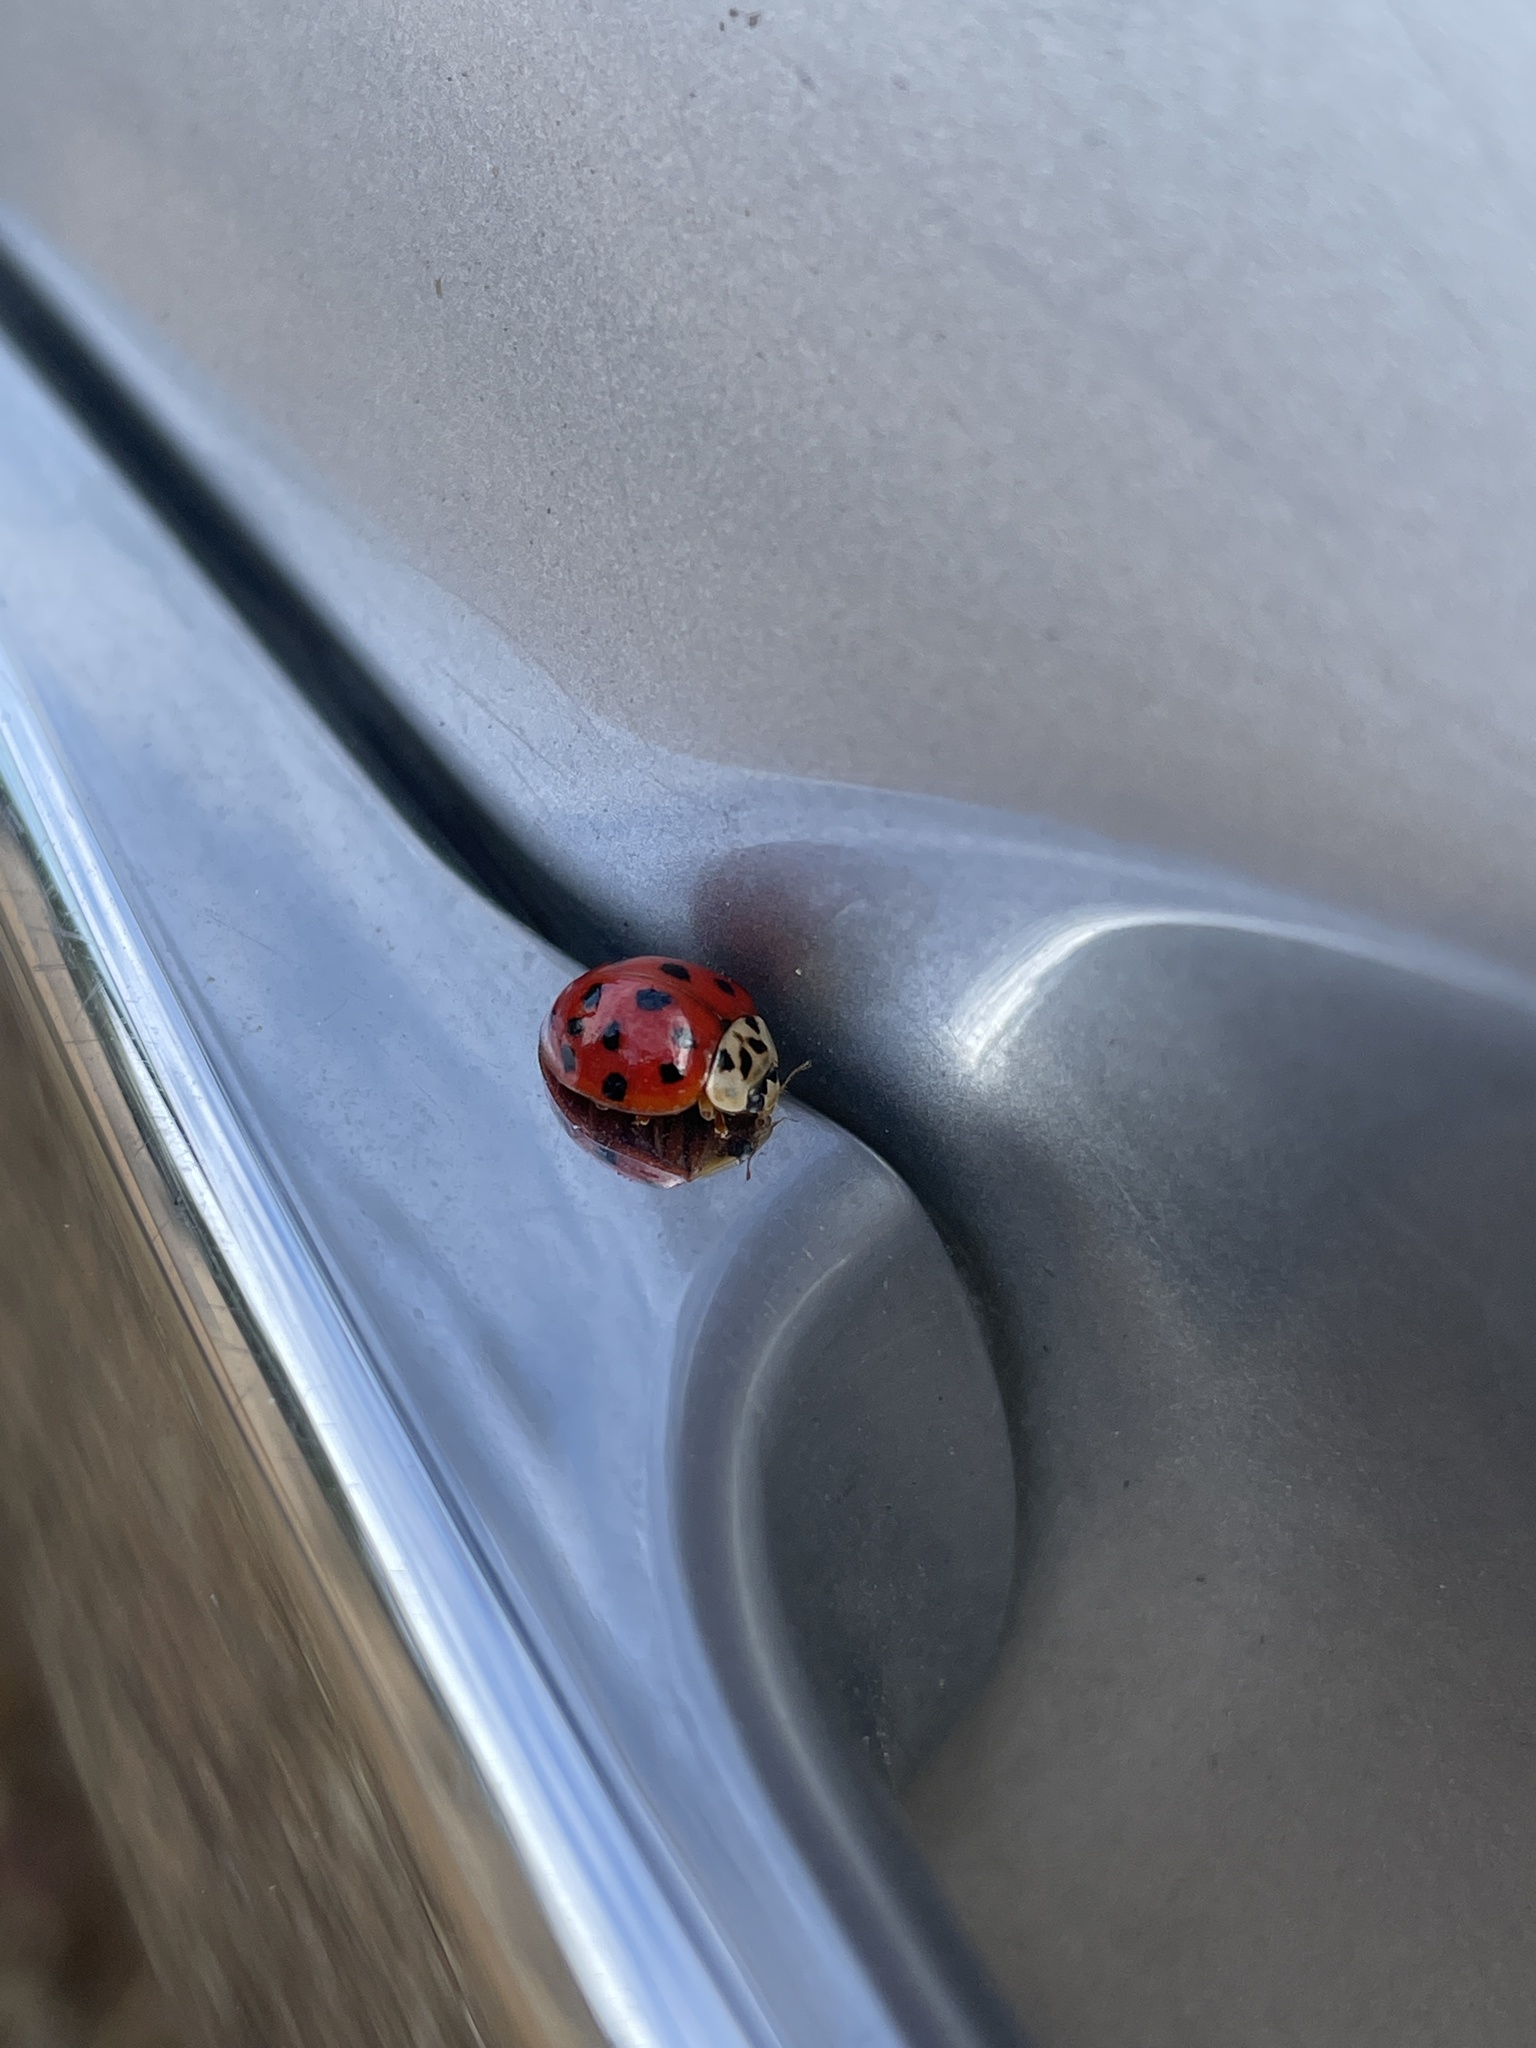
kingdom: Animalia
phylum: Arthropoda
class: Insecta
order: Coleoptera
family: Coccinellidae
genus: Harmonia
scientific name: Harmonia axyridis
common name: Harlequin ladybird
